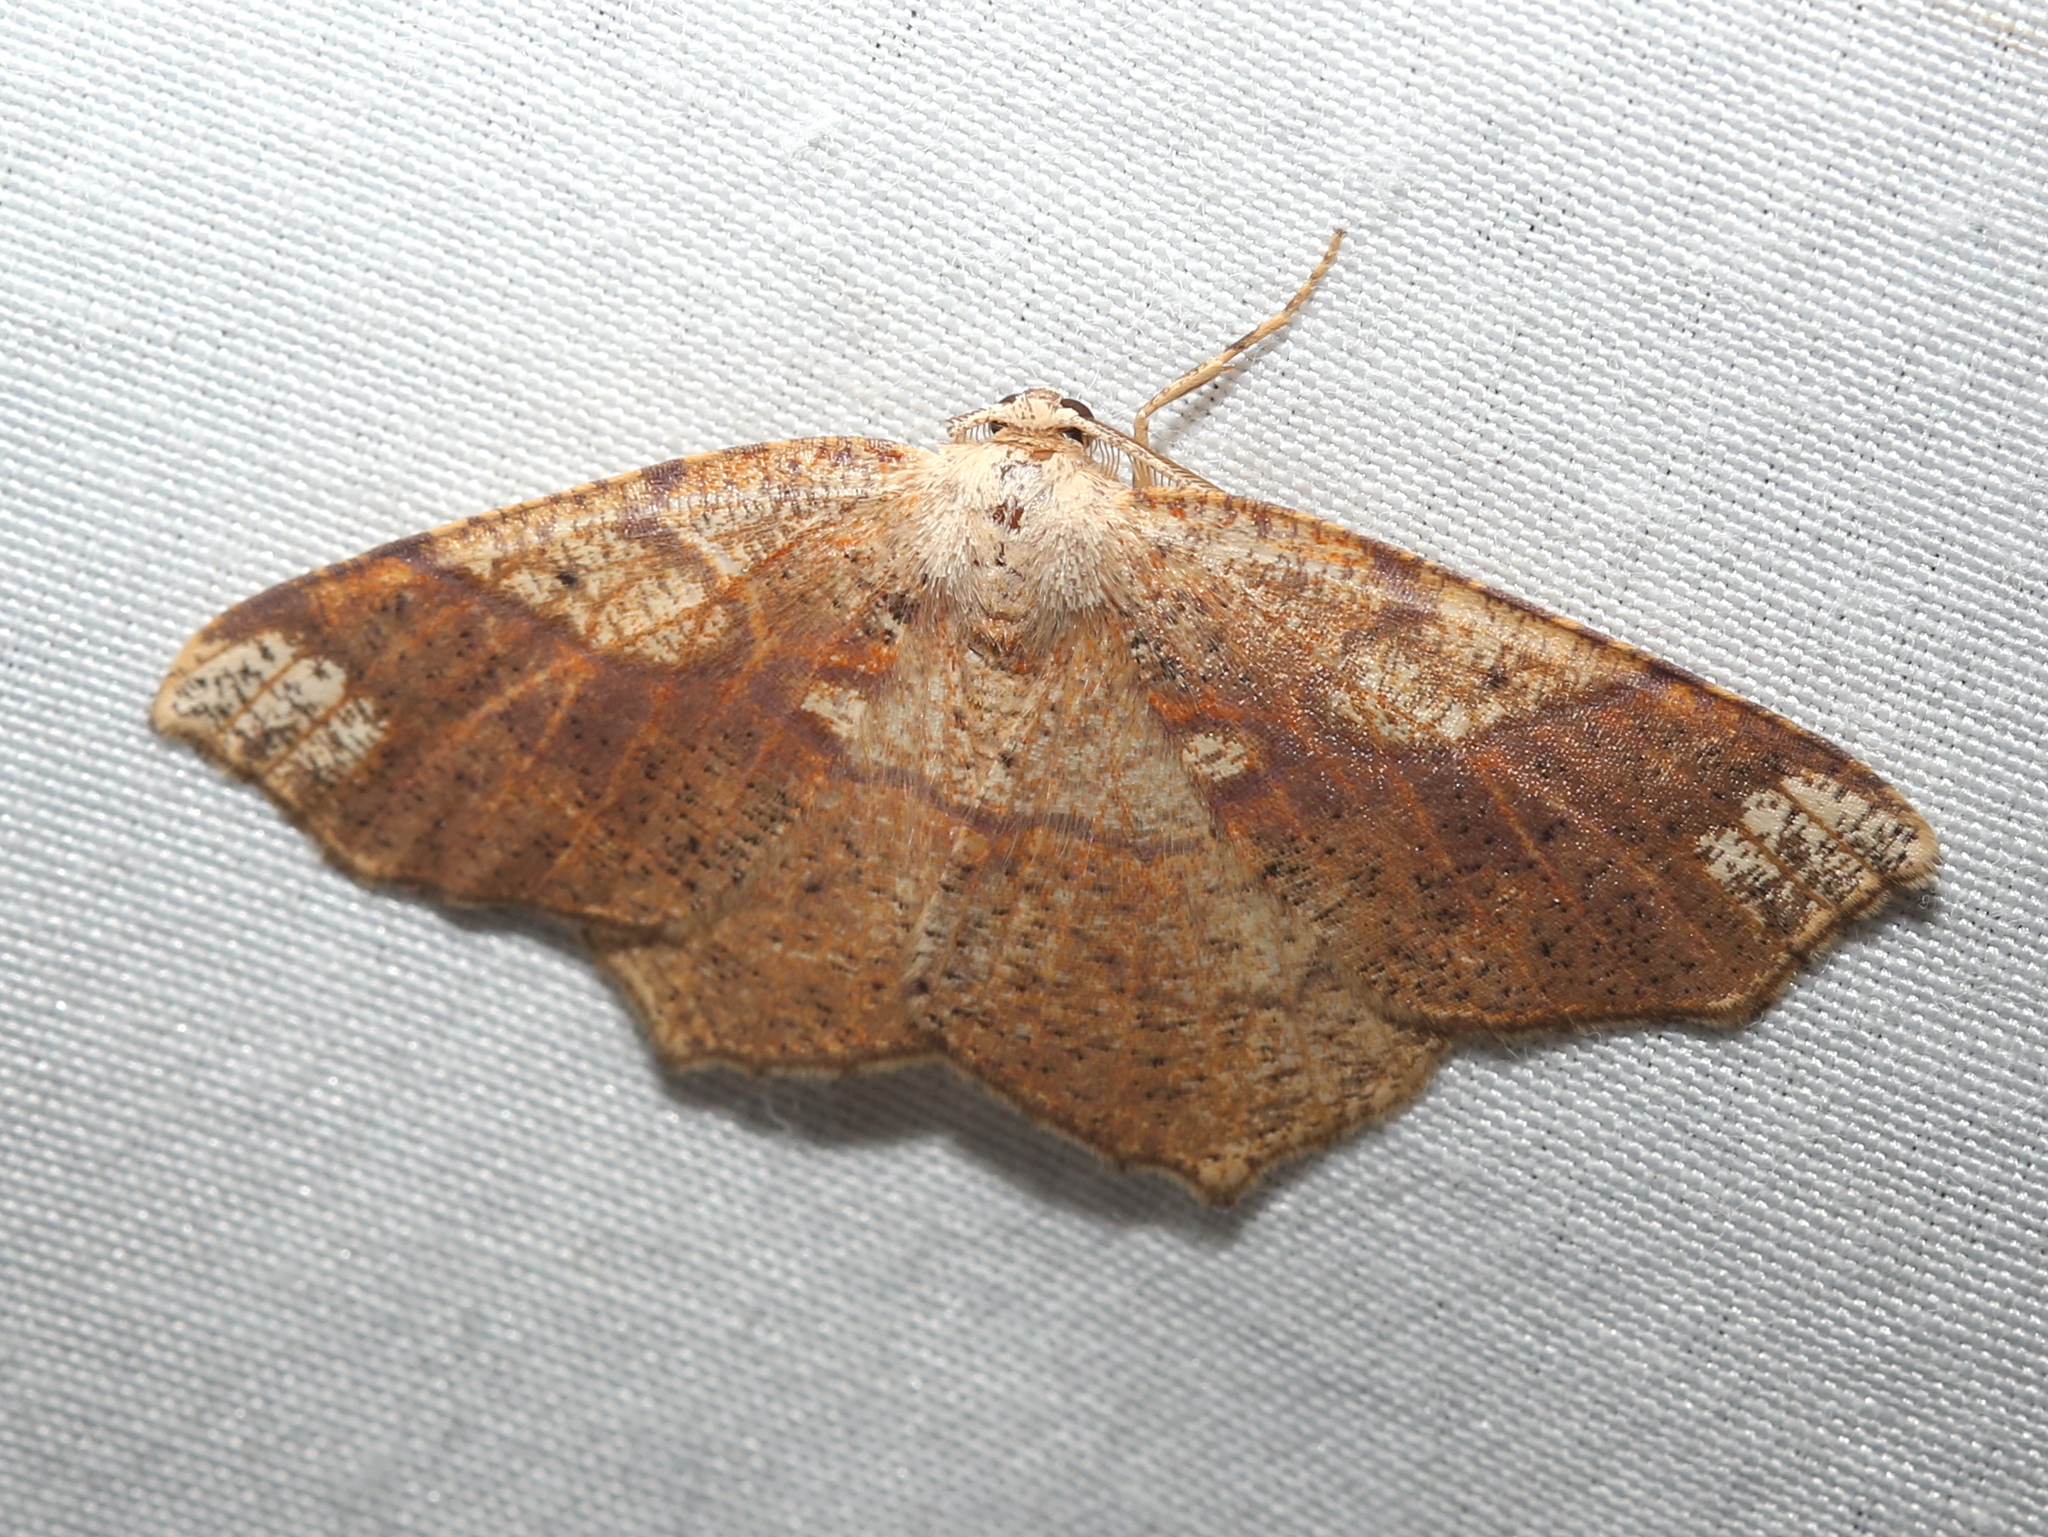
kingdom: Animalia
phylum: Arthropoda
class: Insecta
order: Lepidoptera
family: Geometridae
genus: Besma
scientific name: Besma quercivoraria
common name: Oak besma
